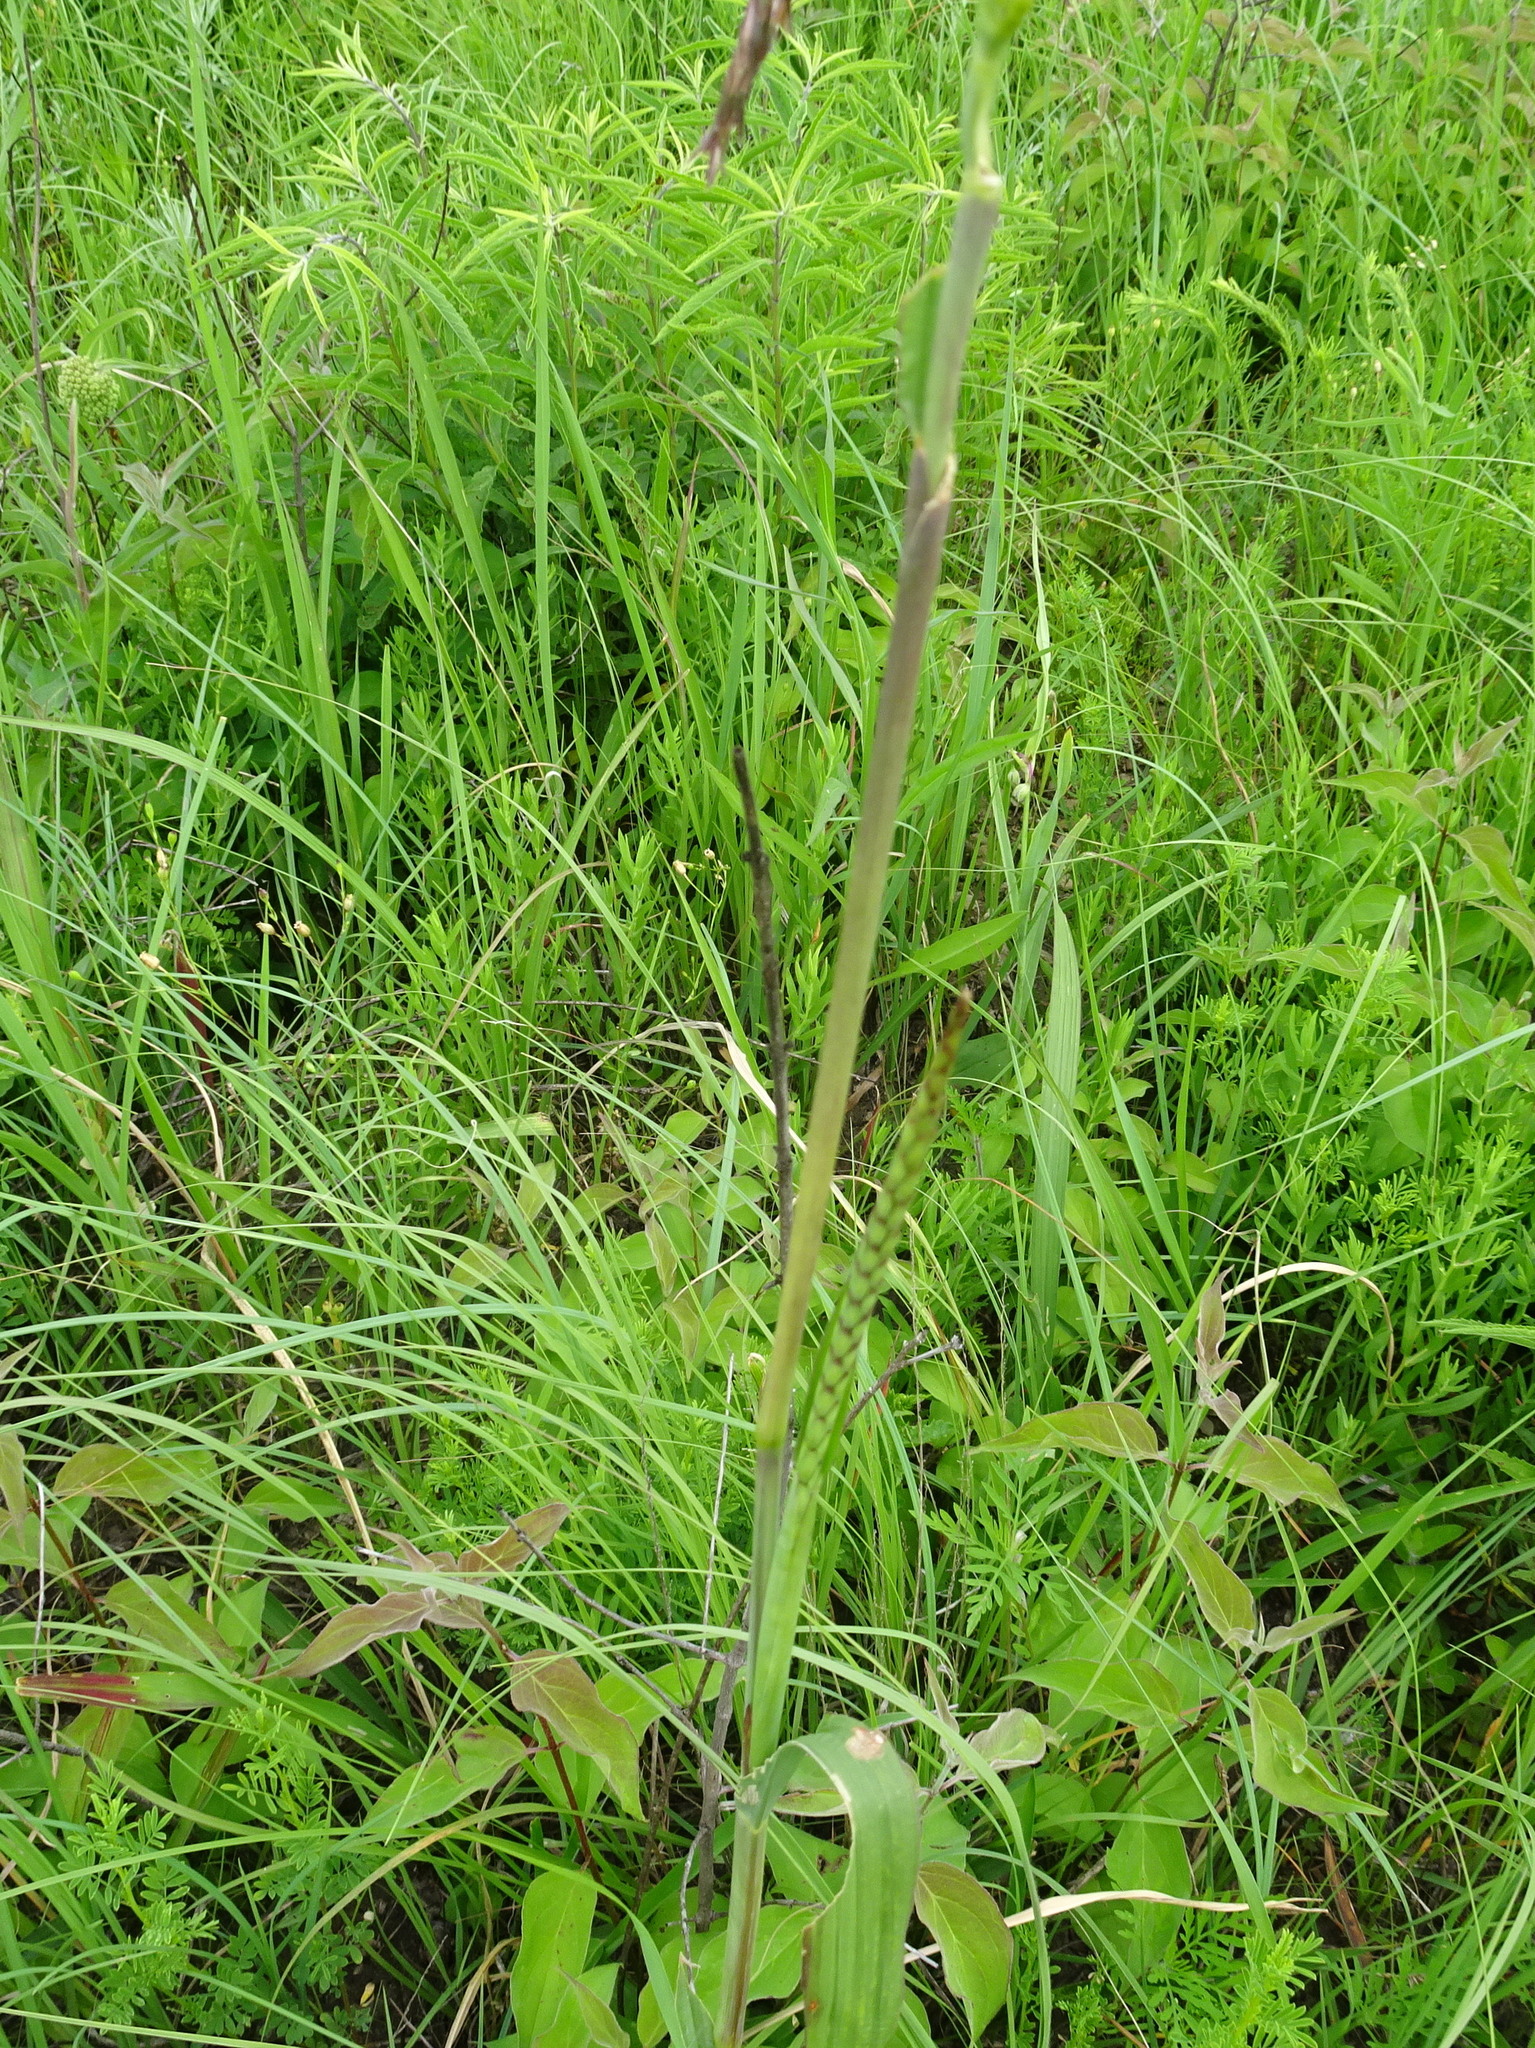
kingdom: Plantae
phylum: Tracheophyta
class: Liliopsida
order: Poales
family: Poaceae
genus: Tripsacum
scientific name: Tripsacum dactyloides
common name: Buffalo-grass
